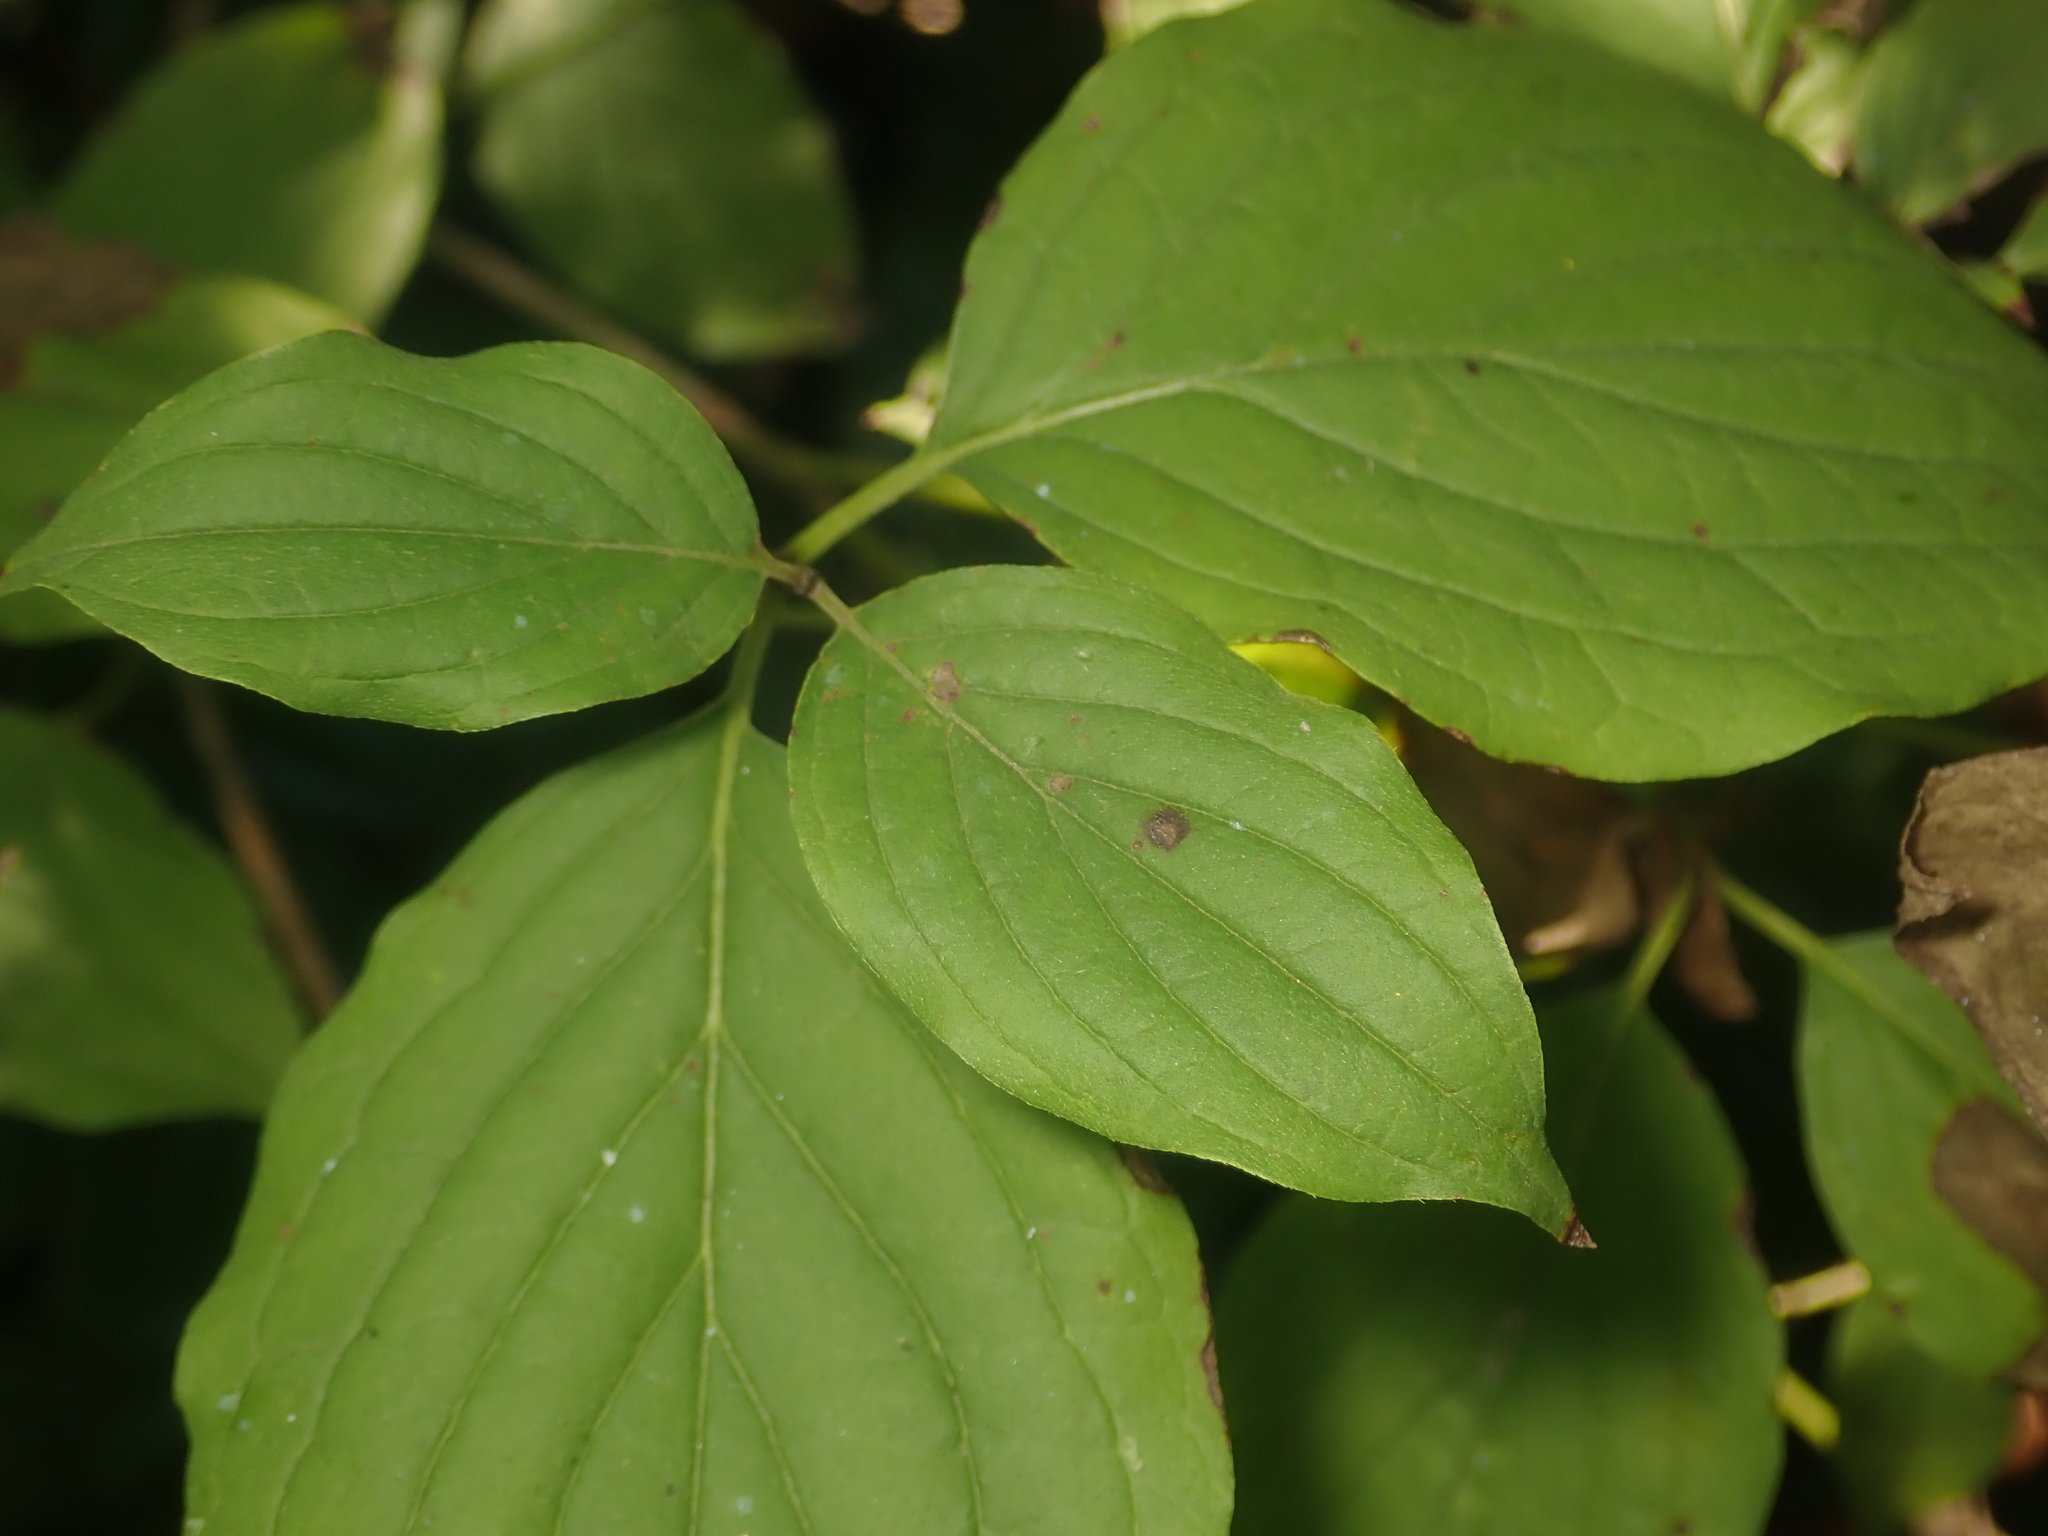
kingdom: Plantae
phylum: Tracheophyta
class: Magnoliopsida
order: Cornales
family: Cornaceae
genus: Cornus
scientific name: Cornus sanguinea
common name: Dogwood
